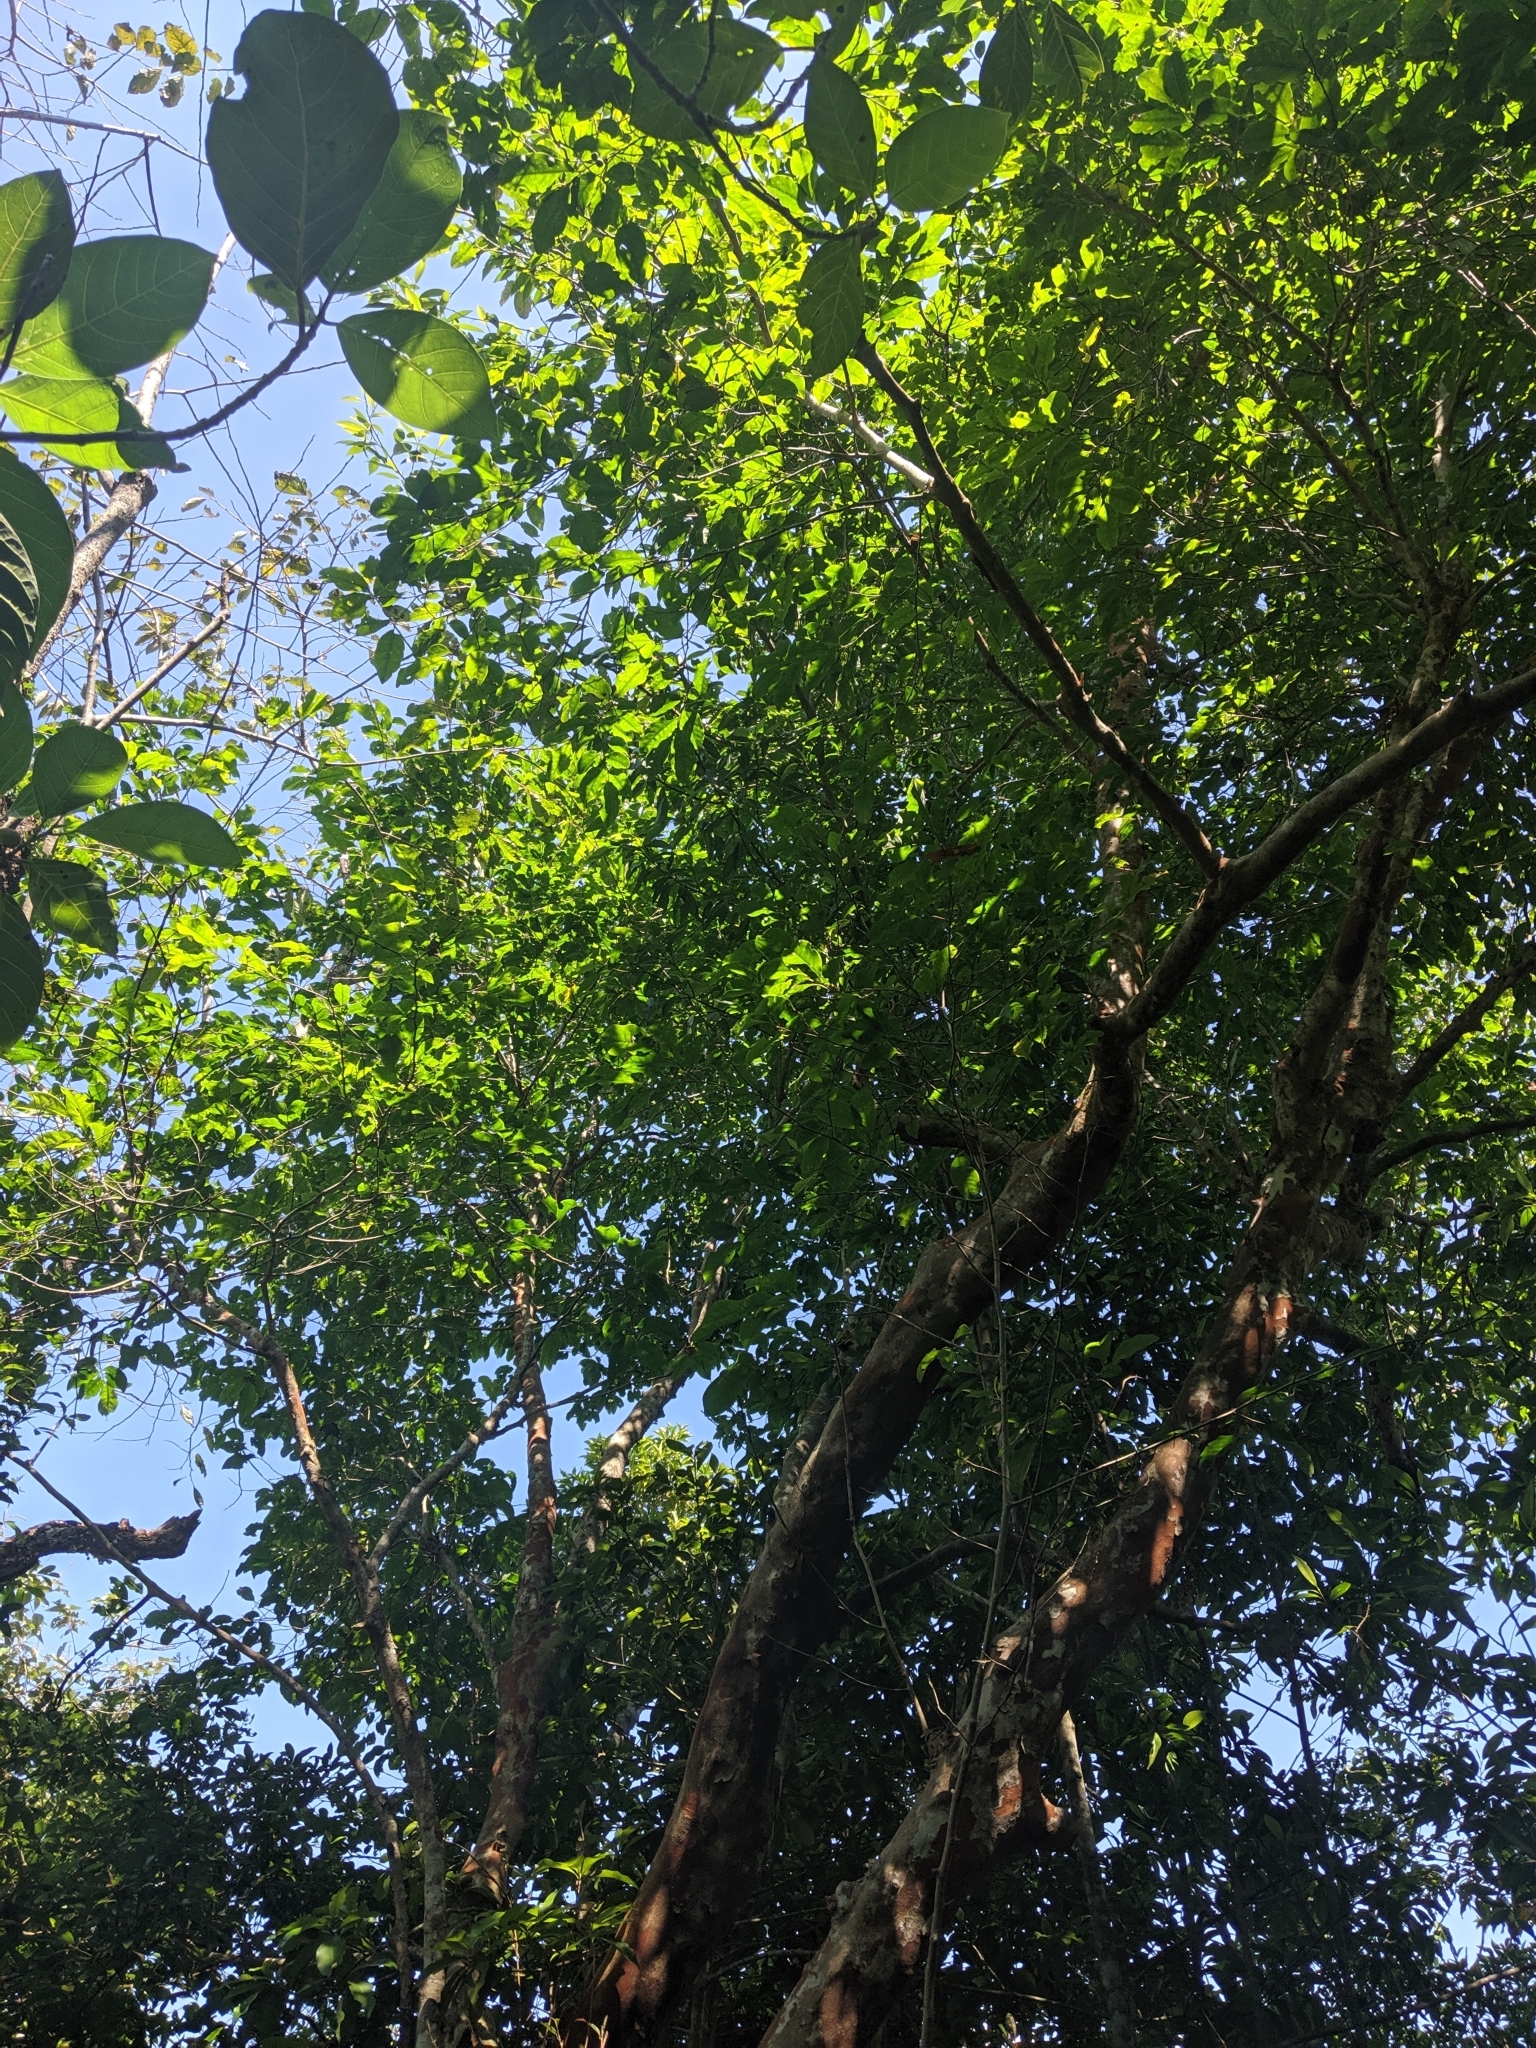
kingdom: Plantae
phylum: Tracheophyta
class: Magnoliopsida
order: Rosales
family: Rosaceae
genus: Prunus
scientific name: Prunus zippeliana
